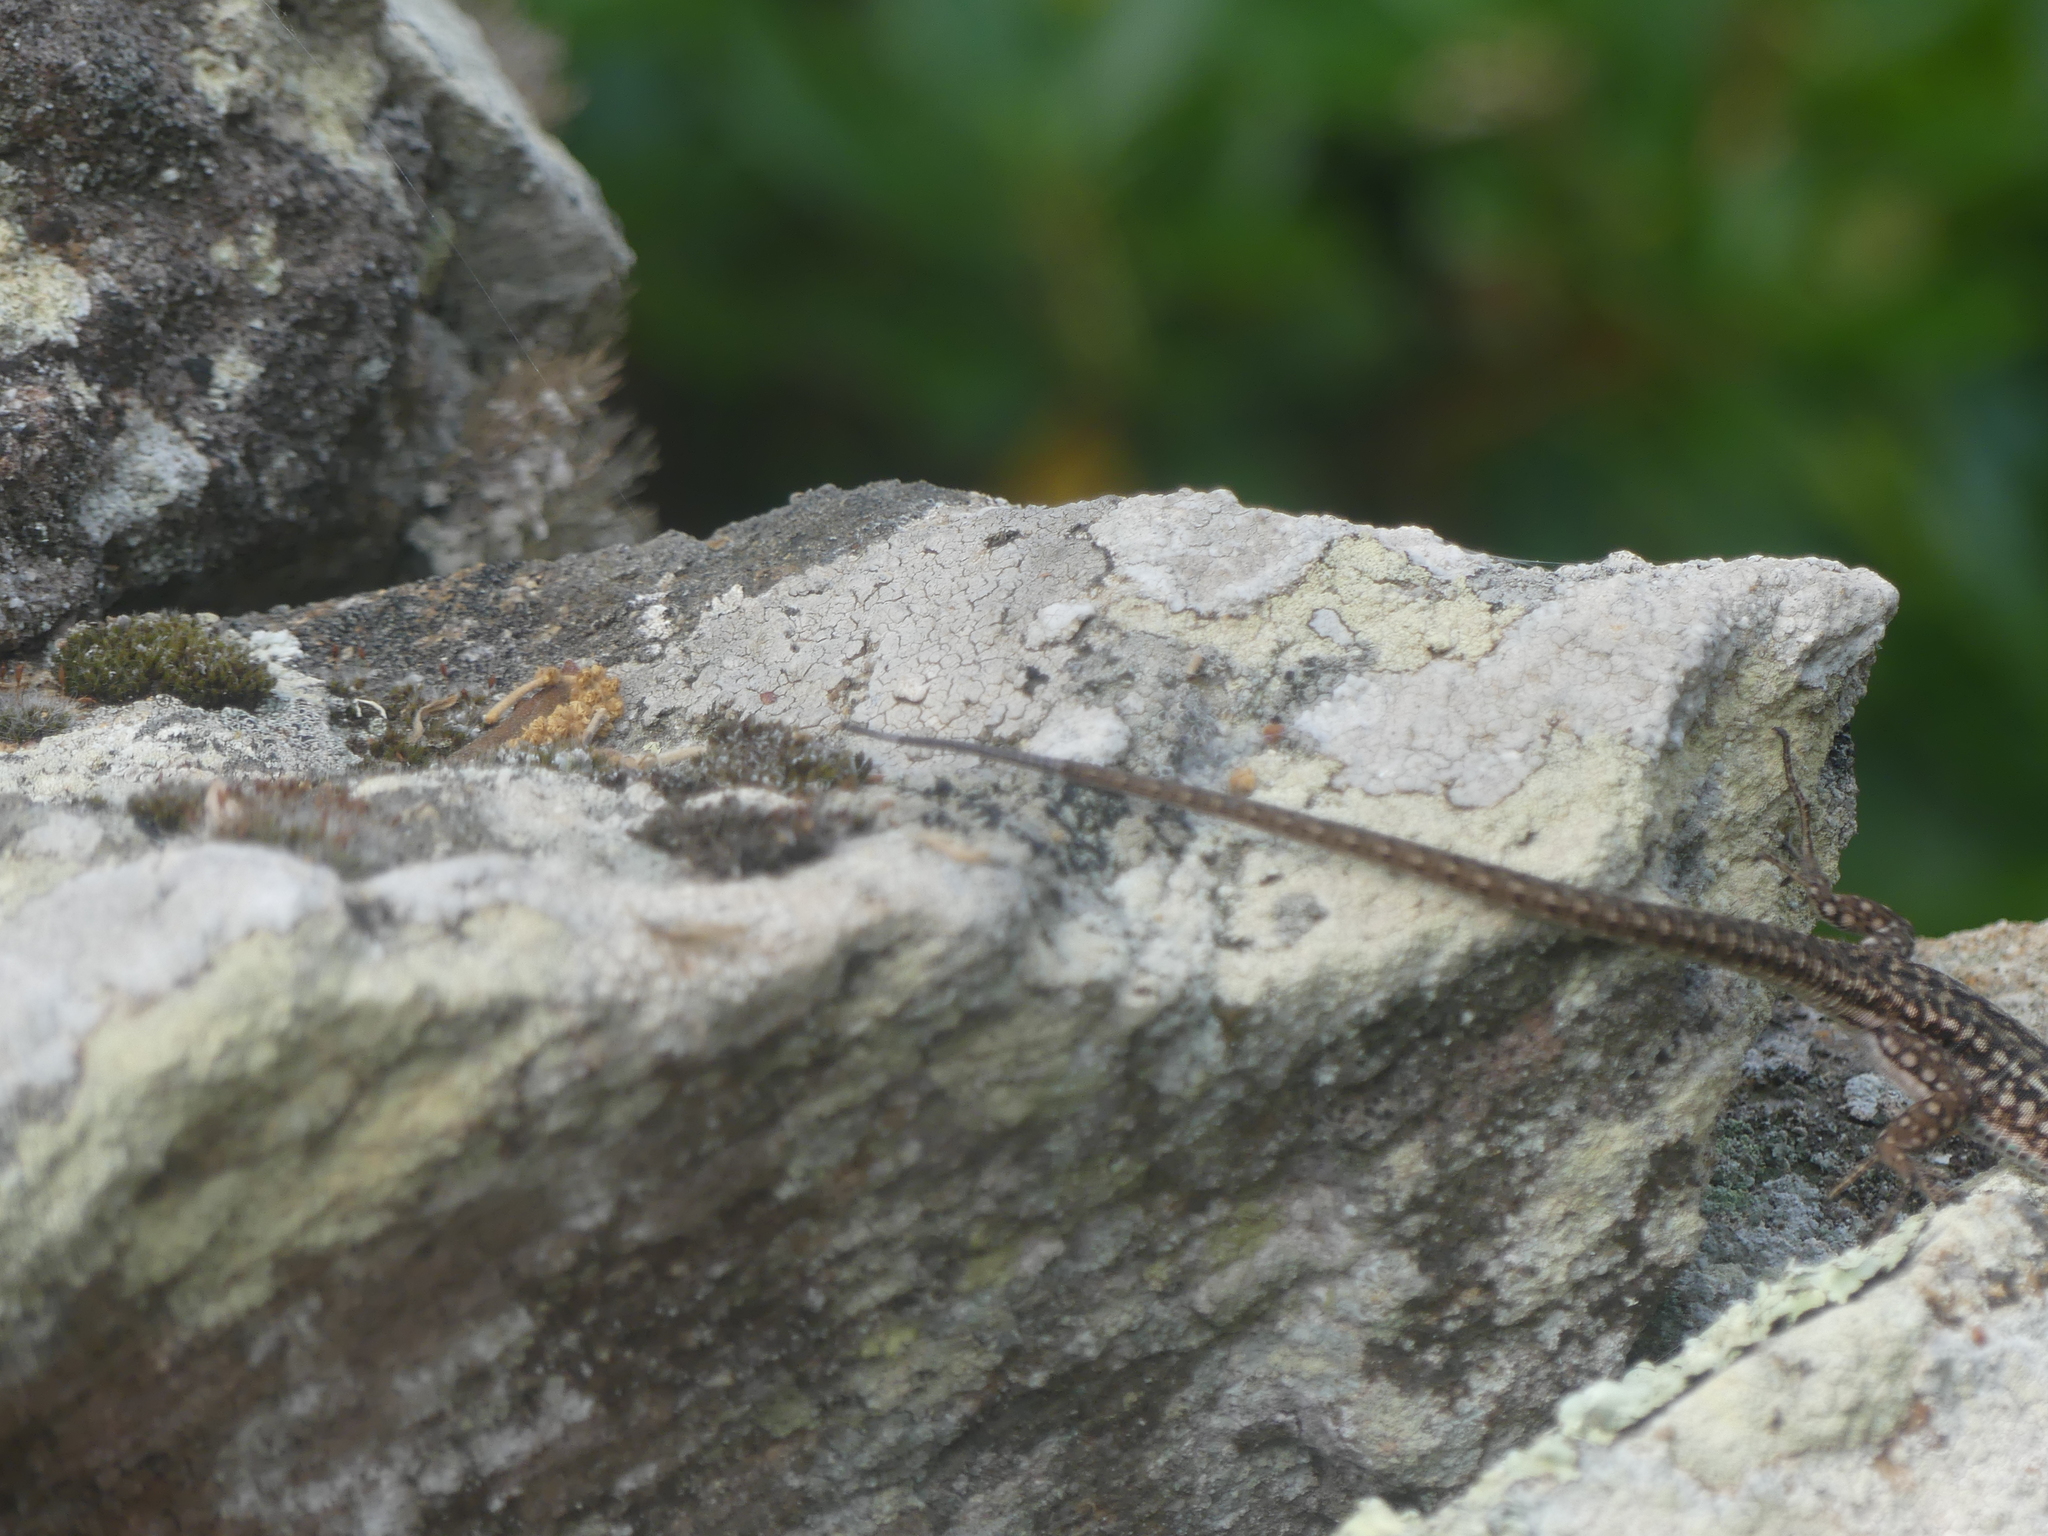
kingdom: Animalia
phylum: Chordata
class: Squamata
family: Lacertidae
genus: Podarcis
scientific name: Podarcis siculus
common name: Italian wall lizard
